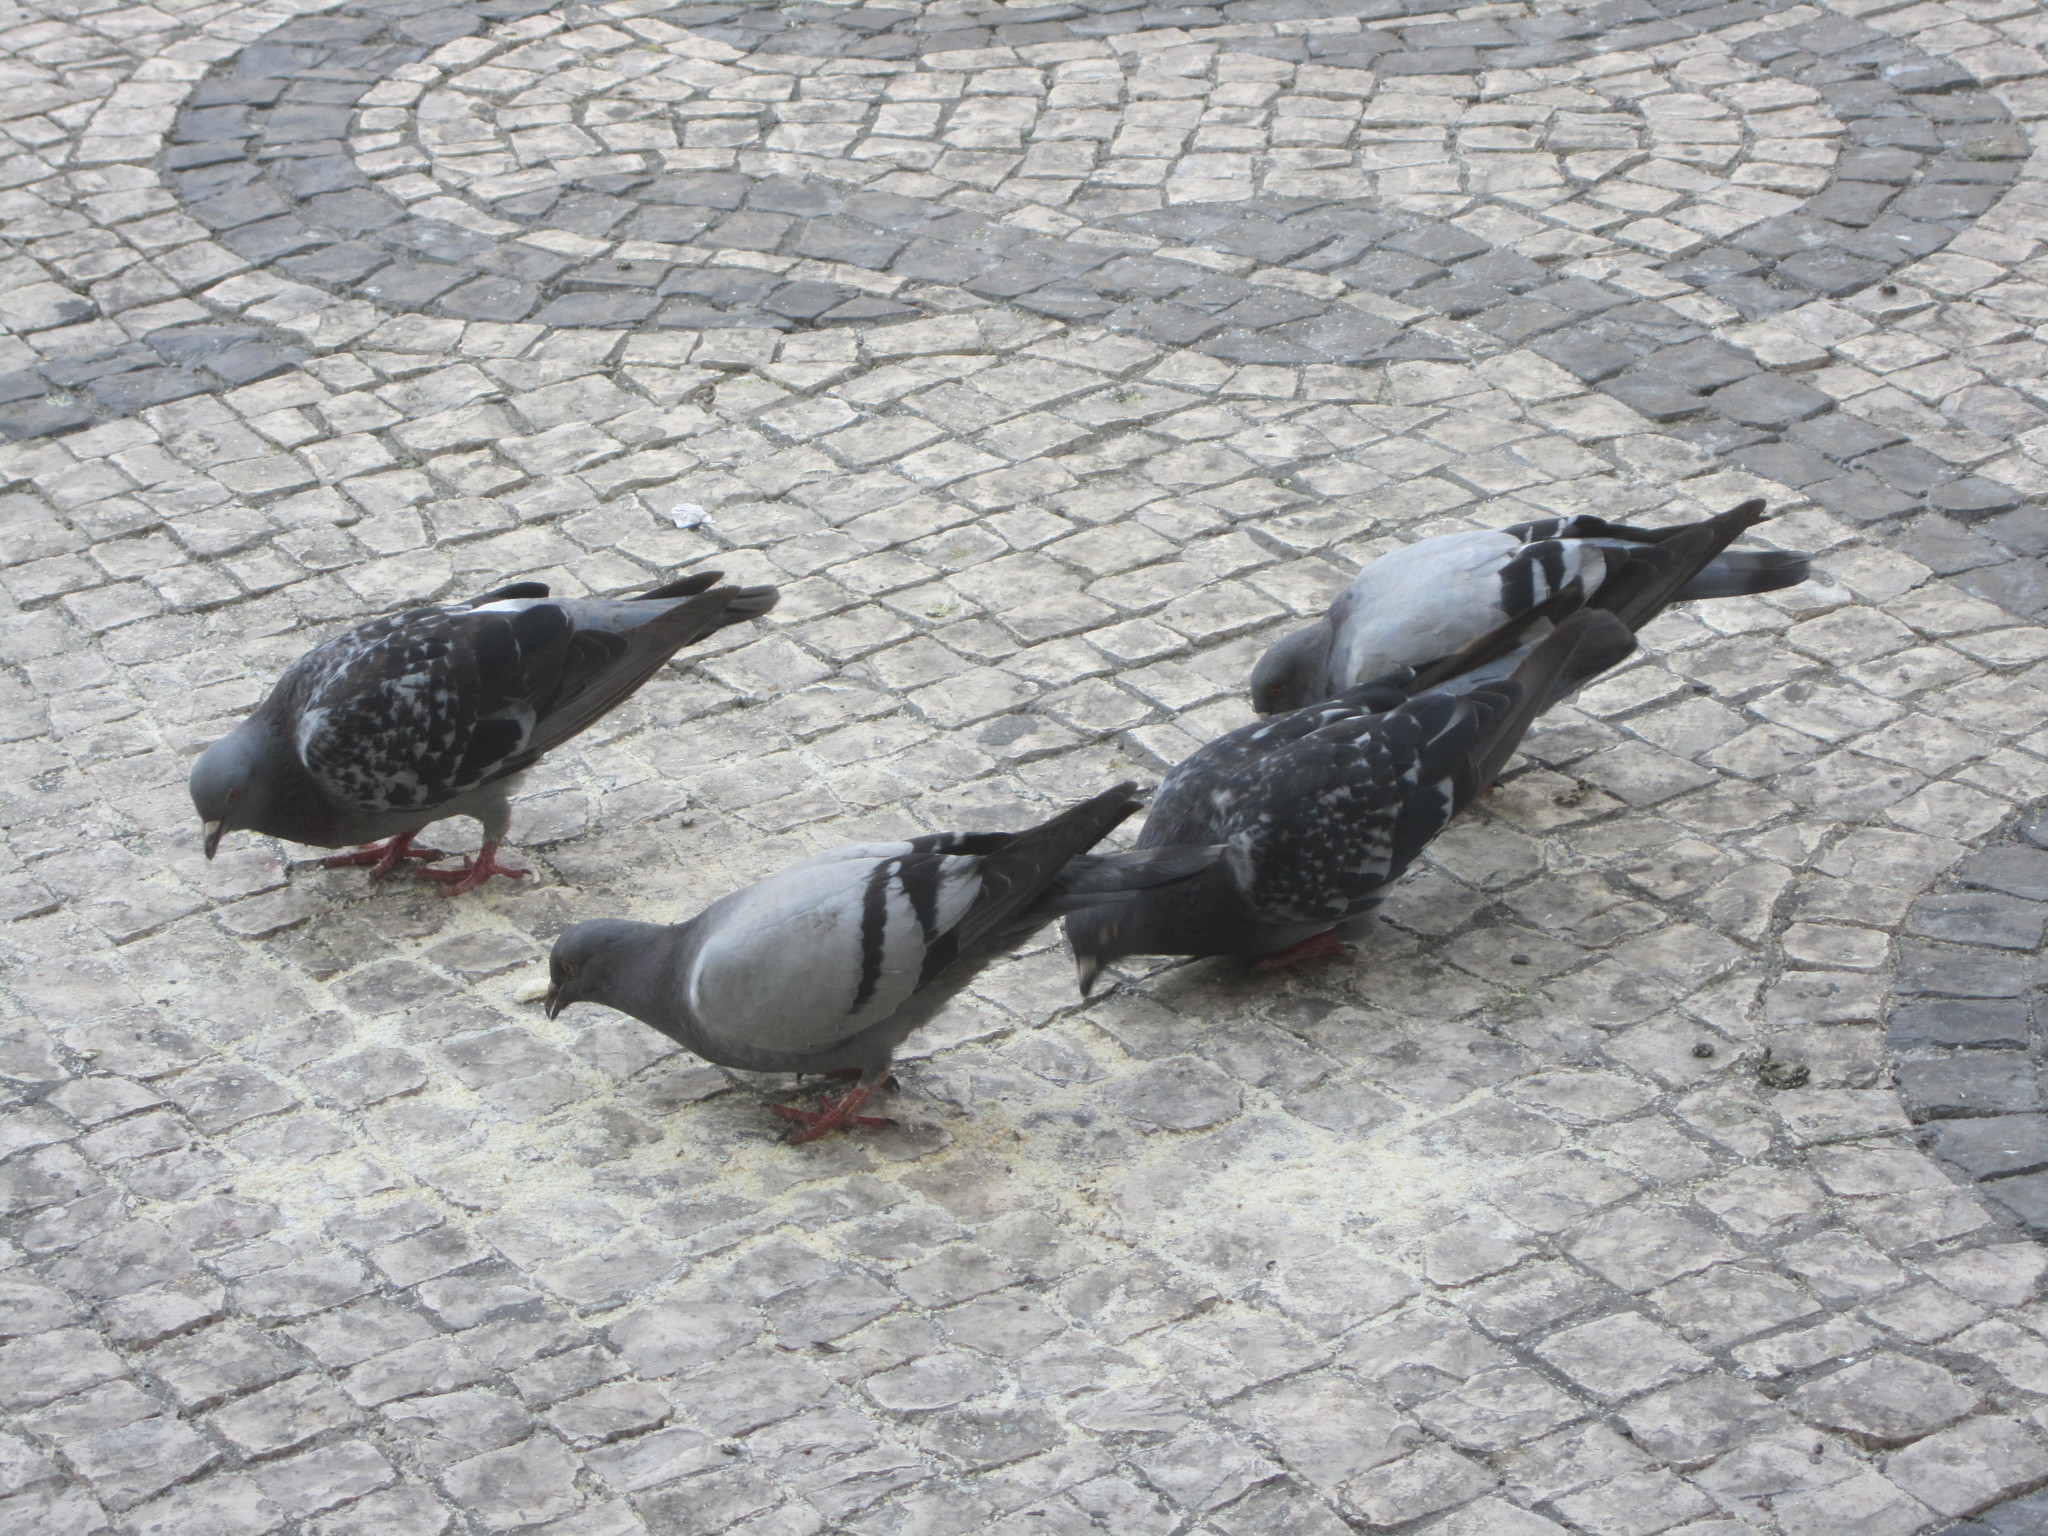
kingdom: Animalia
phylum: Chordata
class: Aves
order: Columbiformes
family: Columbidae
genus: Columba
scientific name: Columba livia
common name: Rock pigeon
